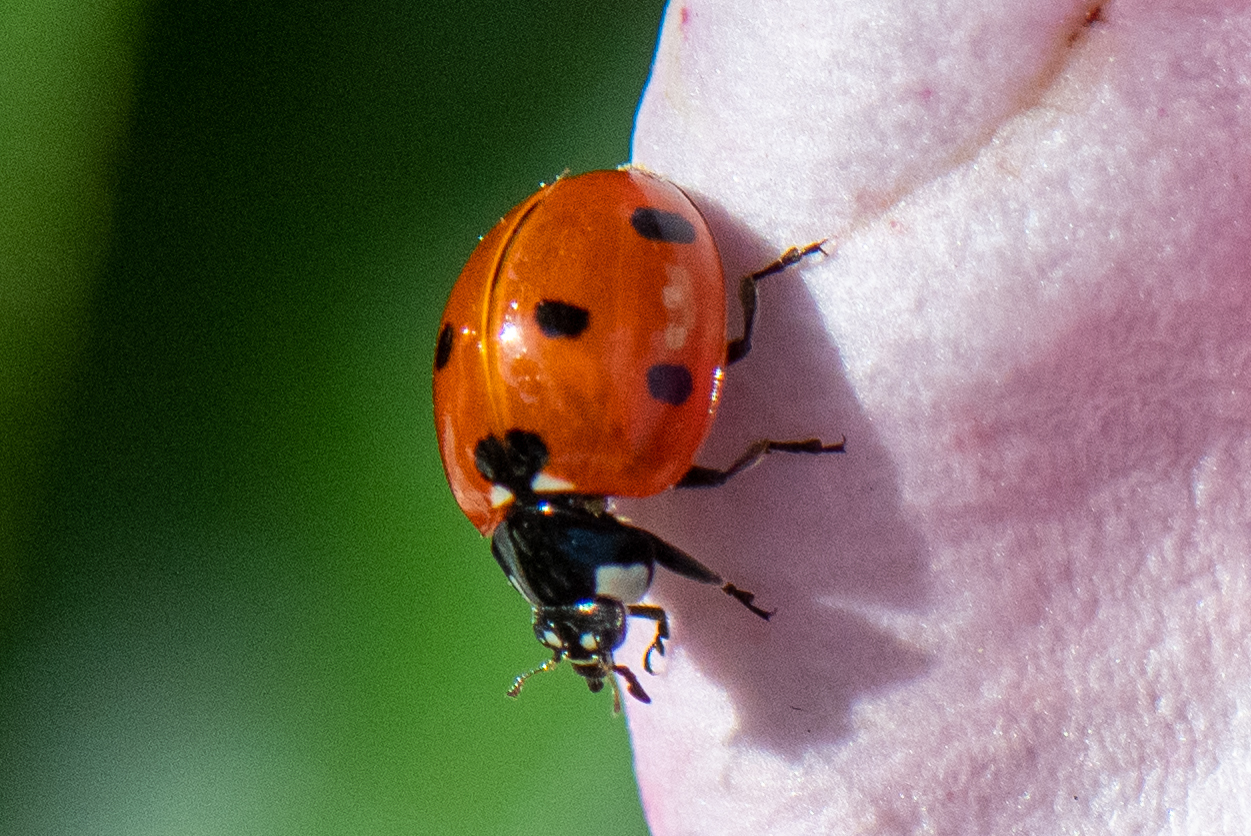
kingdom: Animalia
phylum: Arthropoda
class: Insecta
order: Coleoptera
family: Coccinellidae
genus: Coccinella
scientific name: Coccinella septempunctata
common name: Sevenspotted lady beetle
